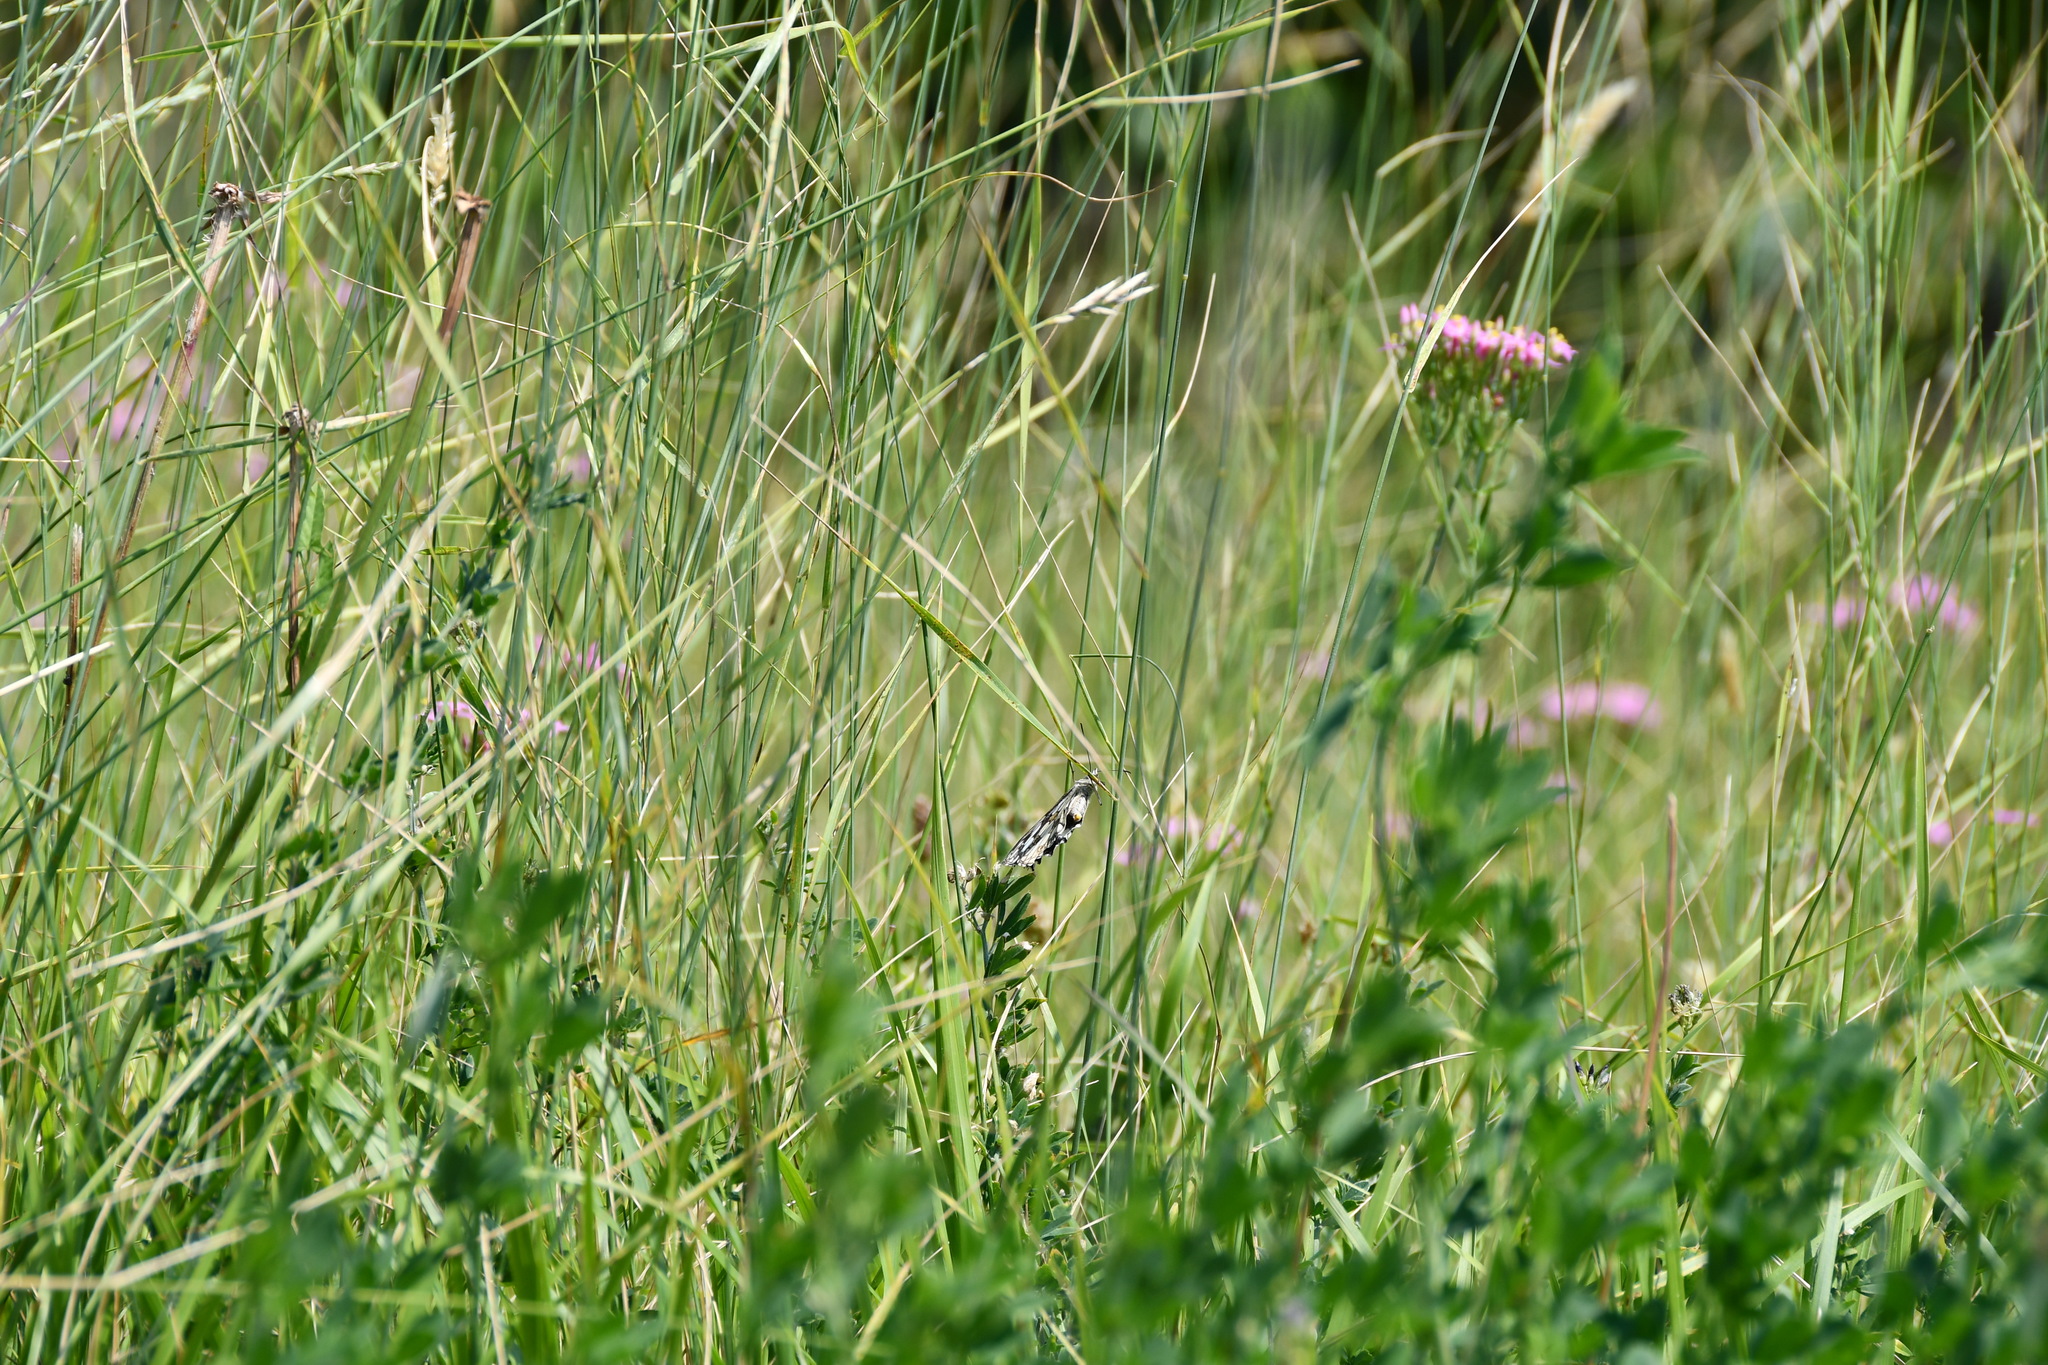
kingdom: Animalia
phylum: Arthropoda
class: Insecta
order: Lepidoptera
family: Nymphalidae
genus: Melanargia
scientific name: Melanargia galathea
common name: Marbled white
